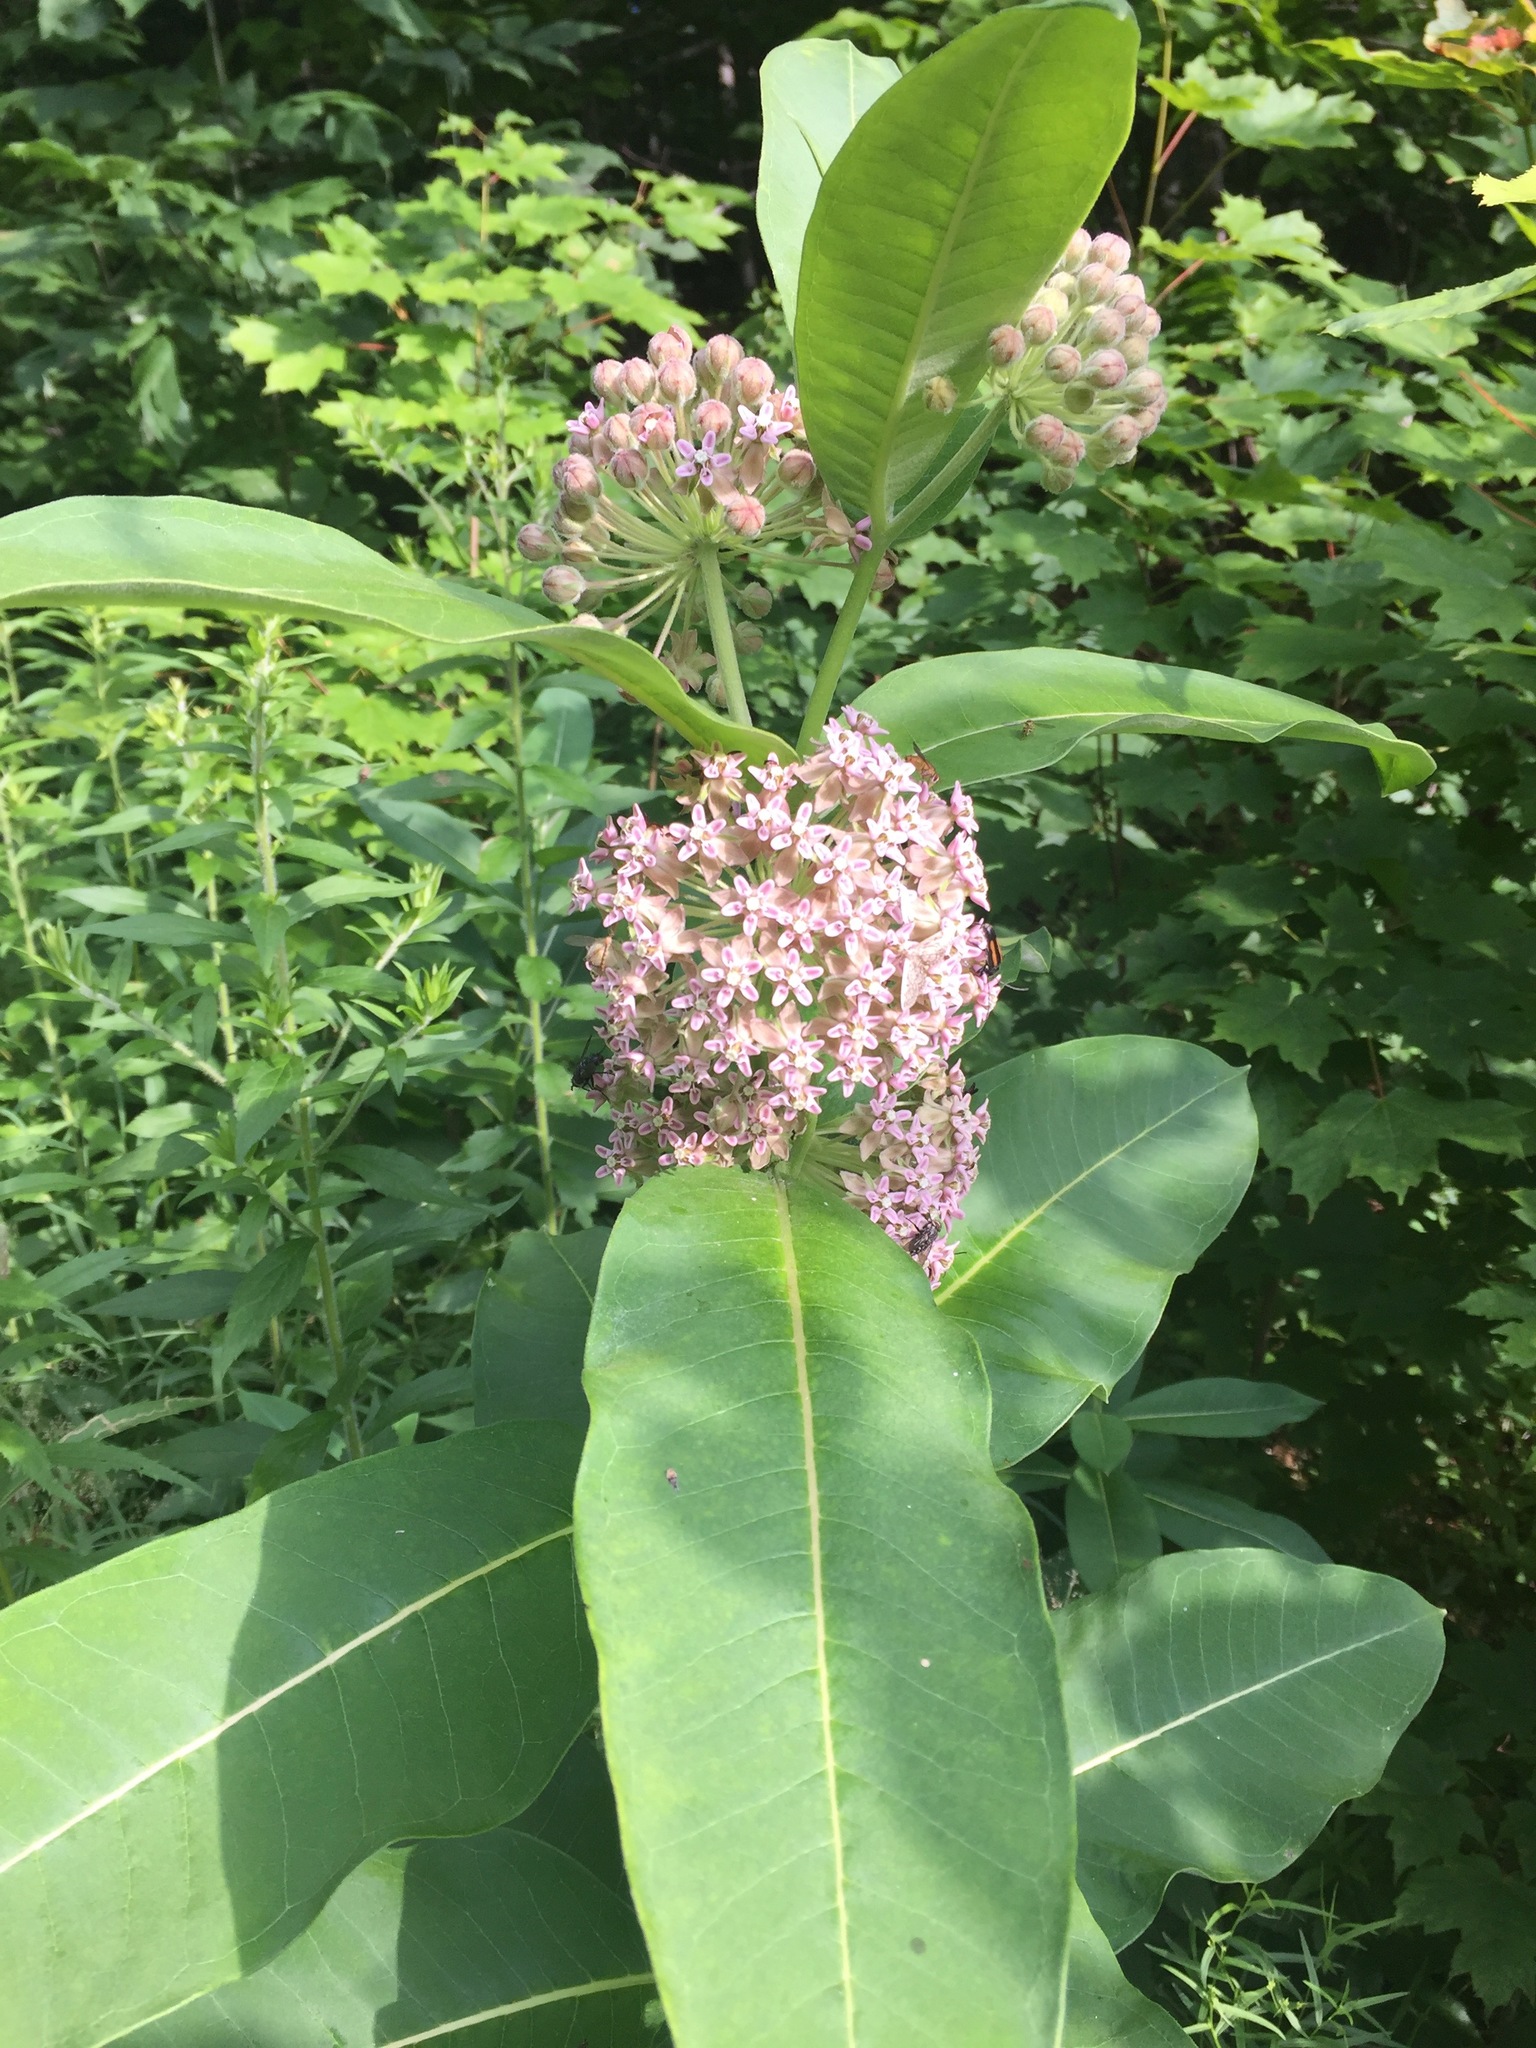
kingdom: Plantae
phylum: Tracheophyta
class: Magnoliopsida
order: Gentianales
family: Apocynaceae
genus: Asclepias
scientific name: Asclepias syriaca
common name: Common milkweed
